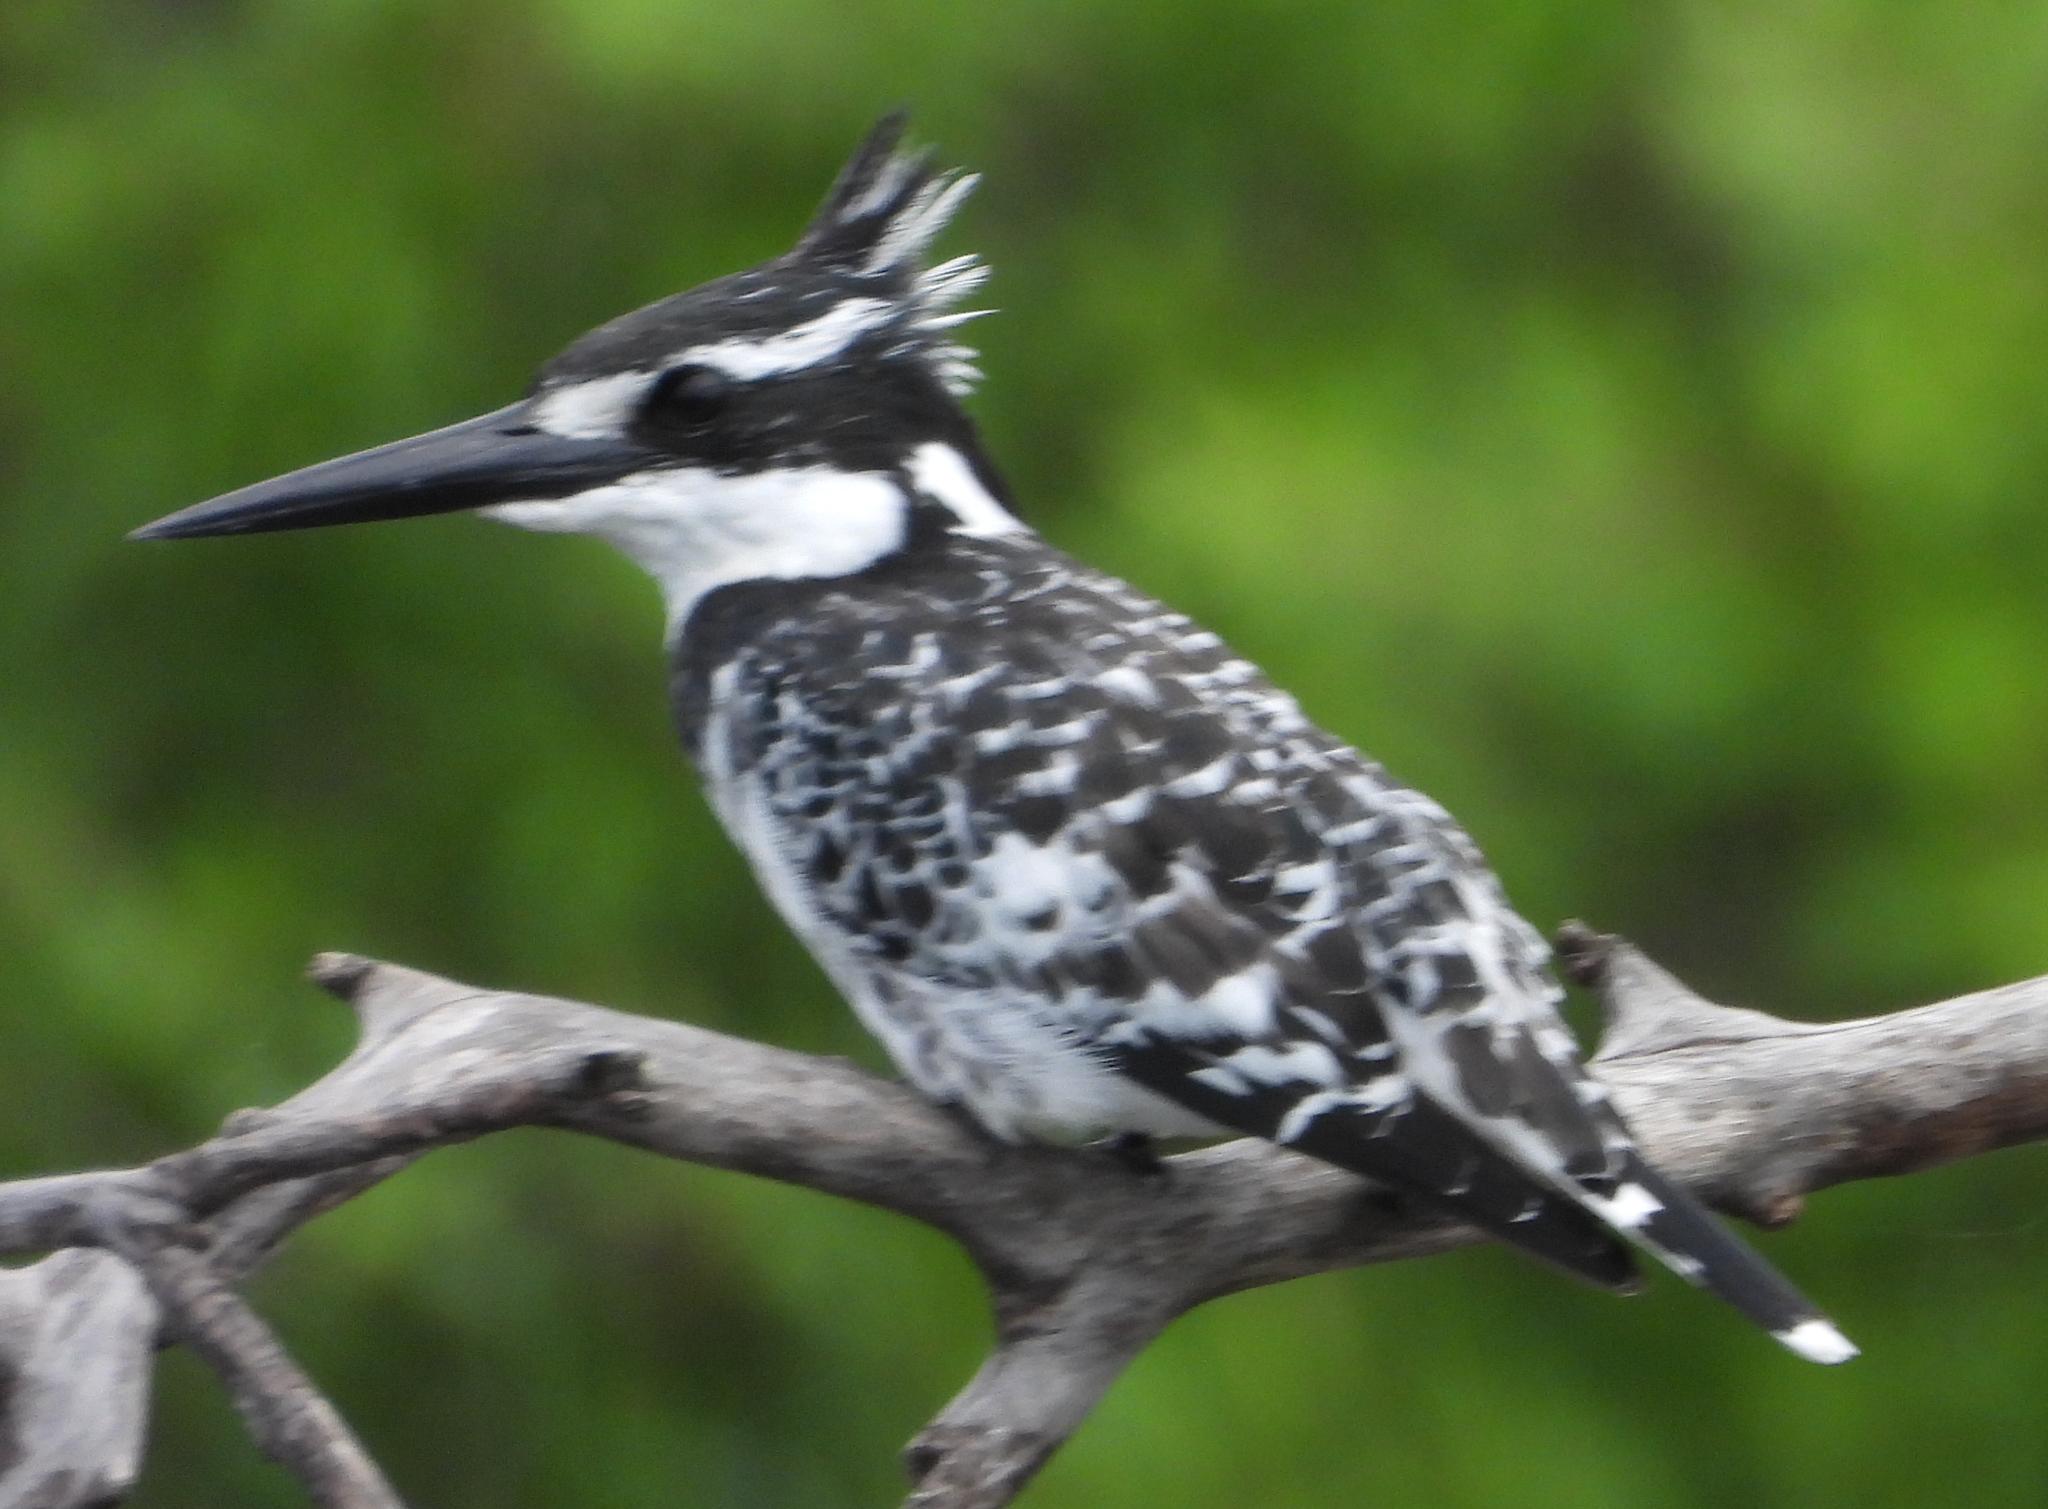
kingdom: Animalia
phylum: Chordata
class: Aves
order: Coraciiformes
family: Alcedinidae
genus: Ceryle
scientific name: Ceryle rudis
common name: Pied kingfisher
